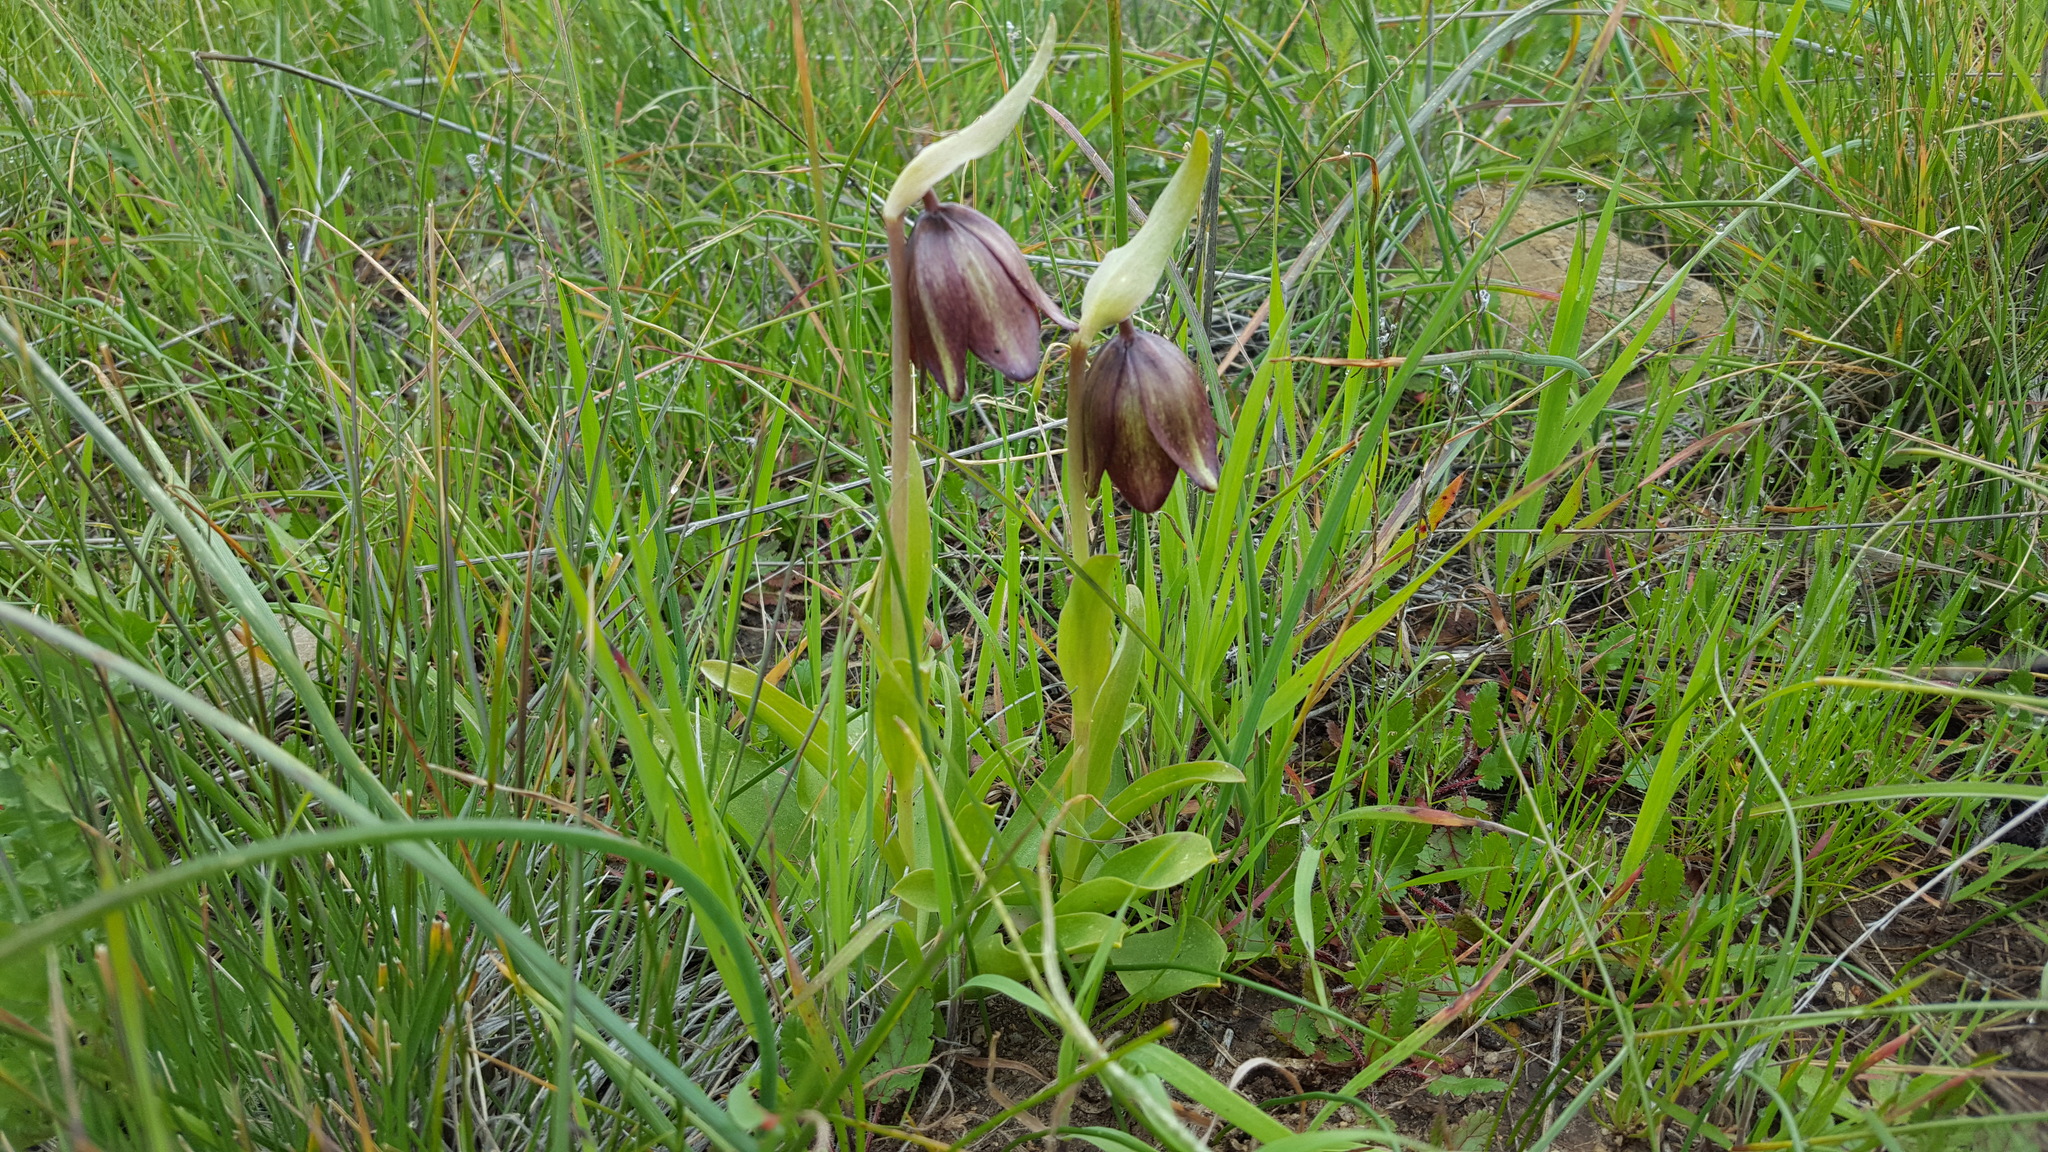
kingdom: Plantae
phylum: Tracheophyta
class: Liliopsida
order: Liliales
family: Liliaceae
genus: Fritillaria
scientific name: Fritillaria biflora
